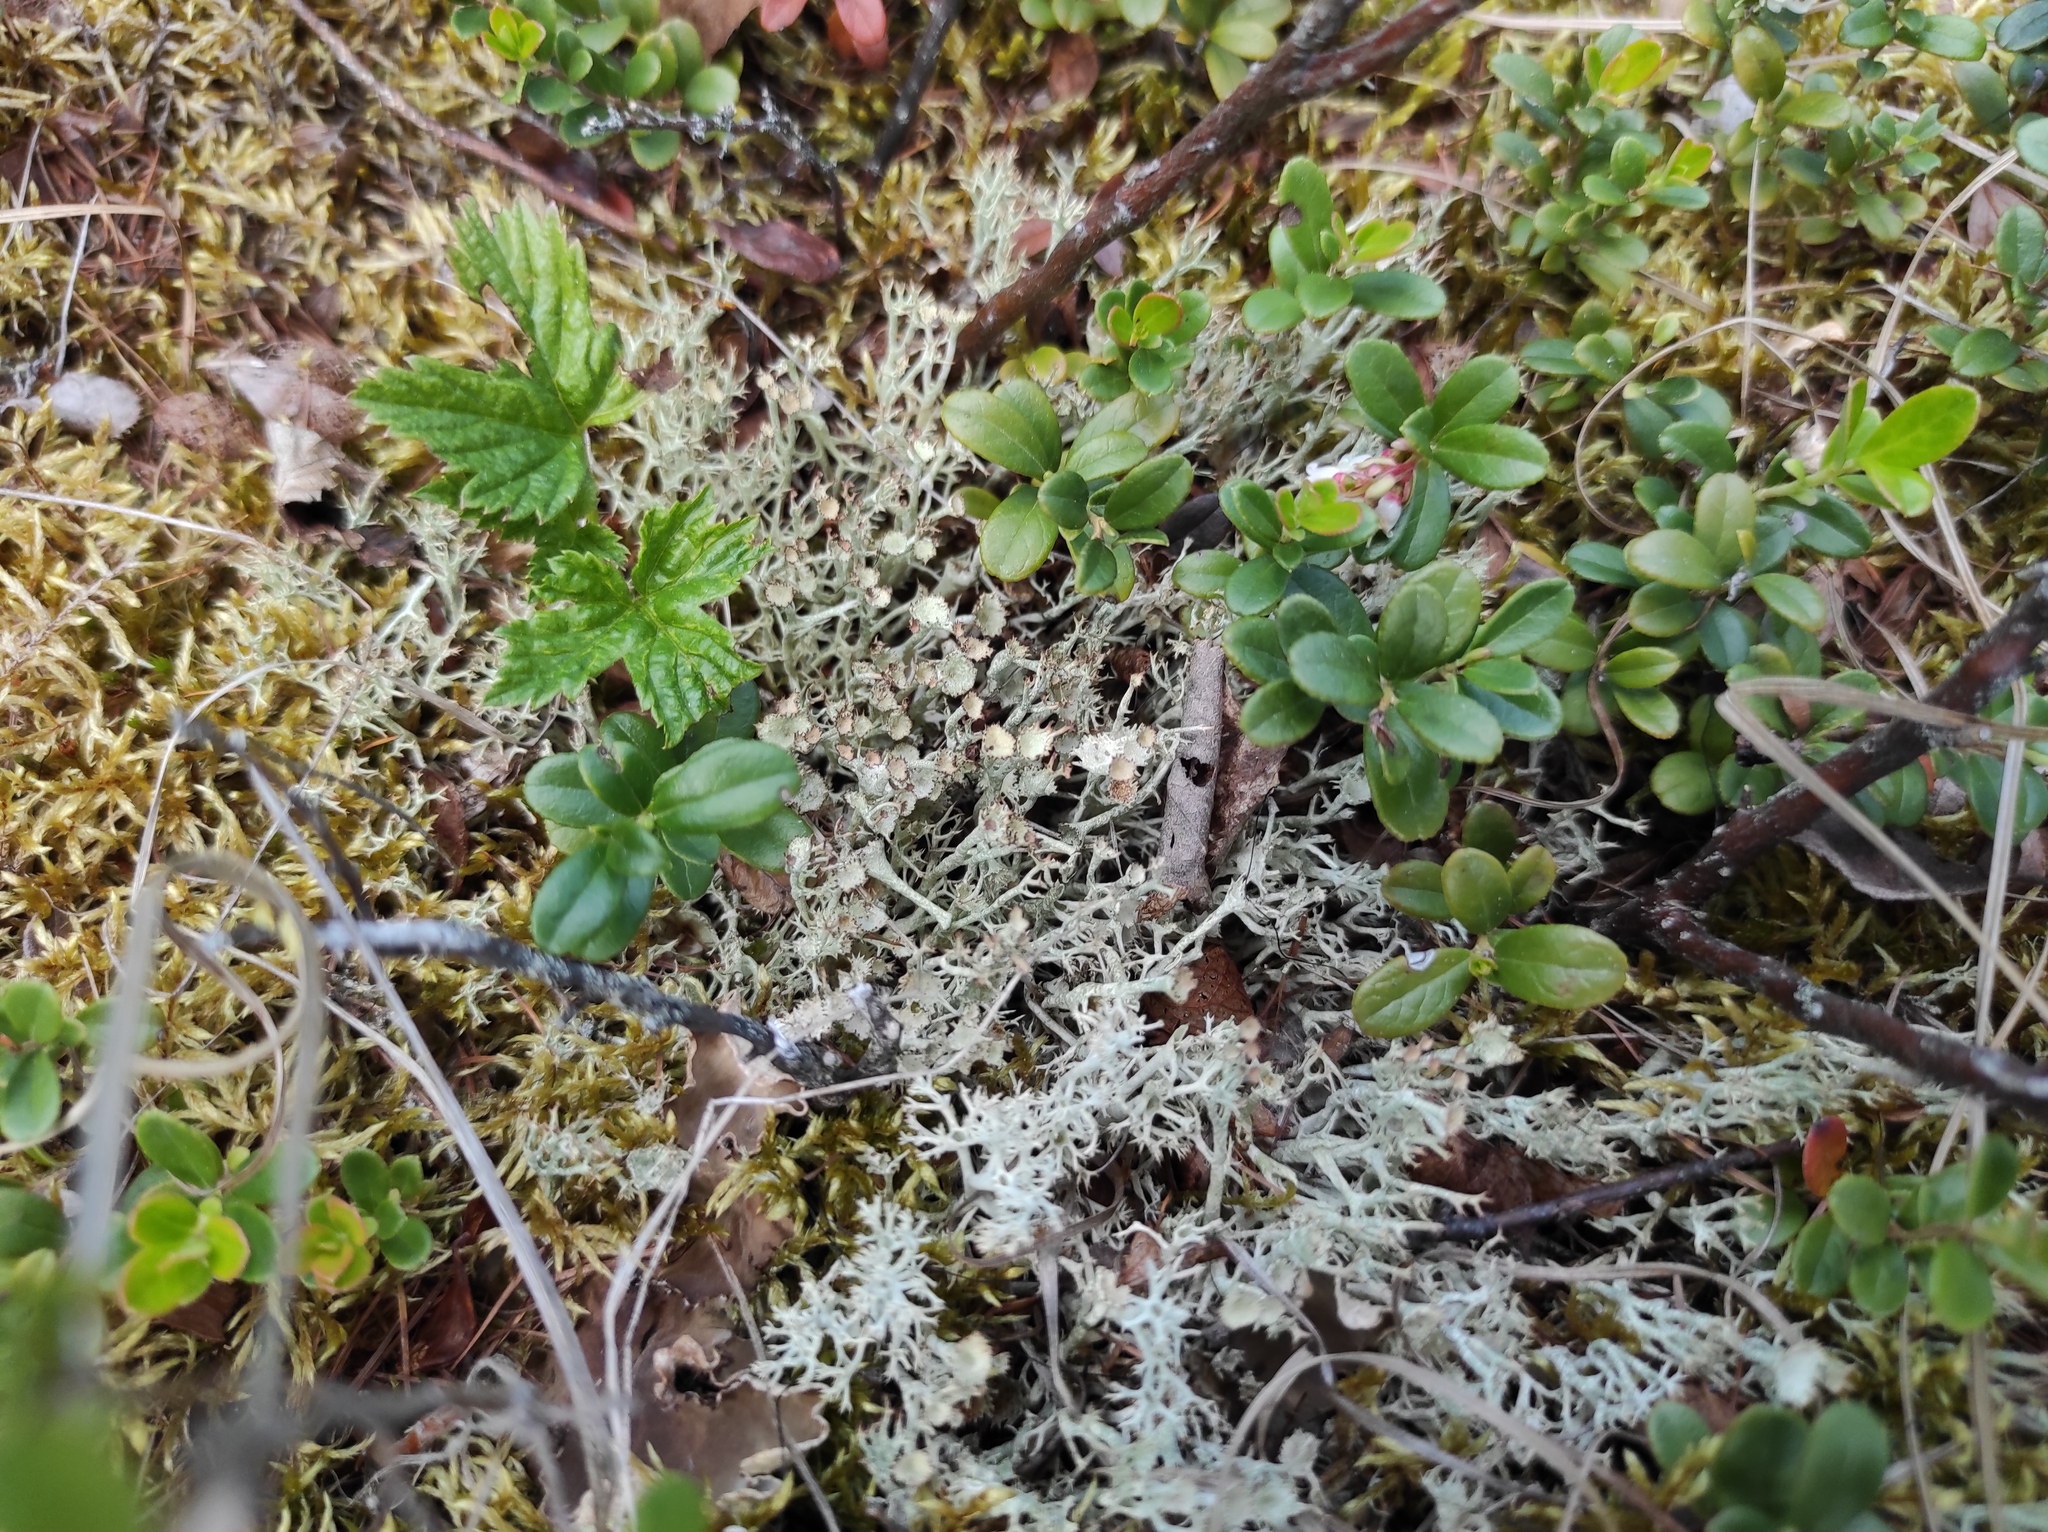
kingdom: Plantae
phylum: Tracheophyta
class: Magnoliopsida
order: Rosales
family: Rosaceae
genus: Rubus
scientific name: Rubus arcticus
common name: Arctic bramble
